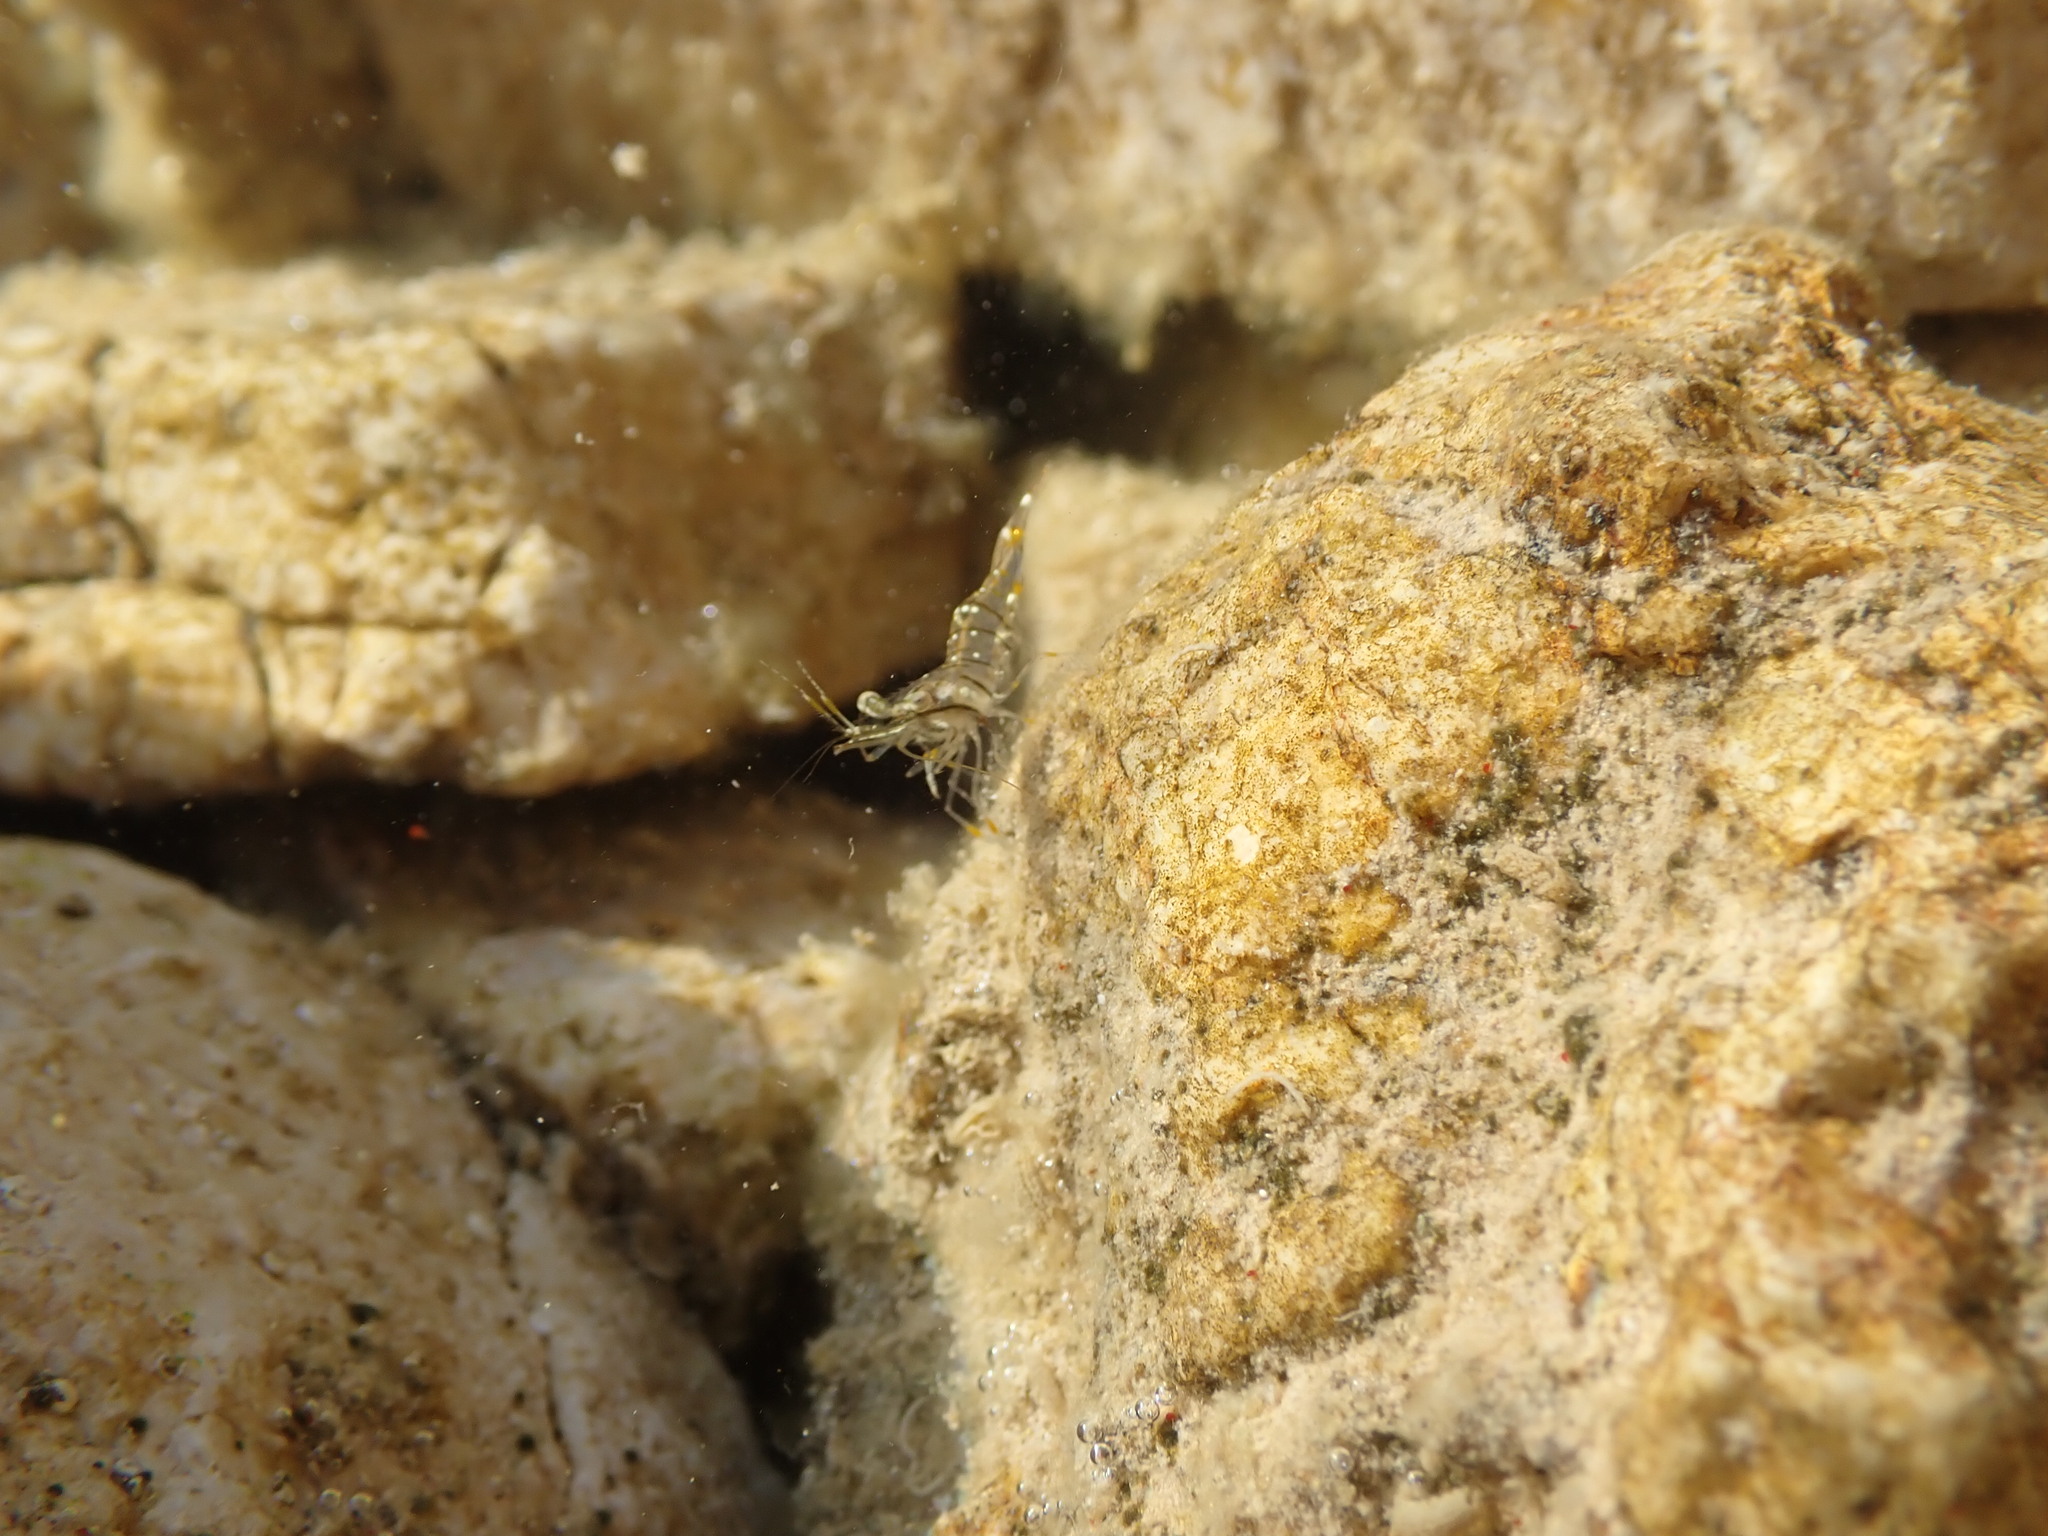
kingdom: Animalia
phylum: Arthropoda
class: Malacostraca
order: Decapoda
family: Palaemonidae
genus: Palaemon
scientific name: Palaemon elegans
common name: Grass prawm
